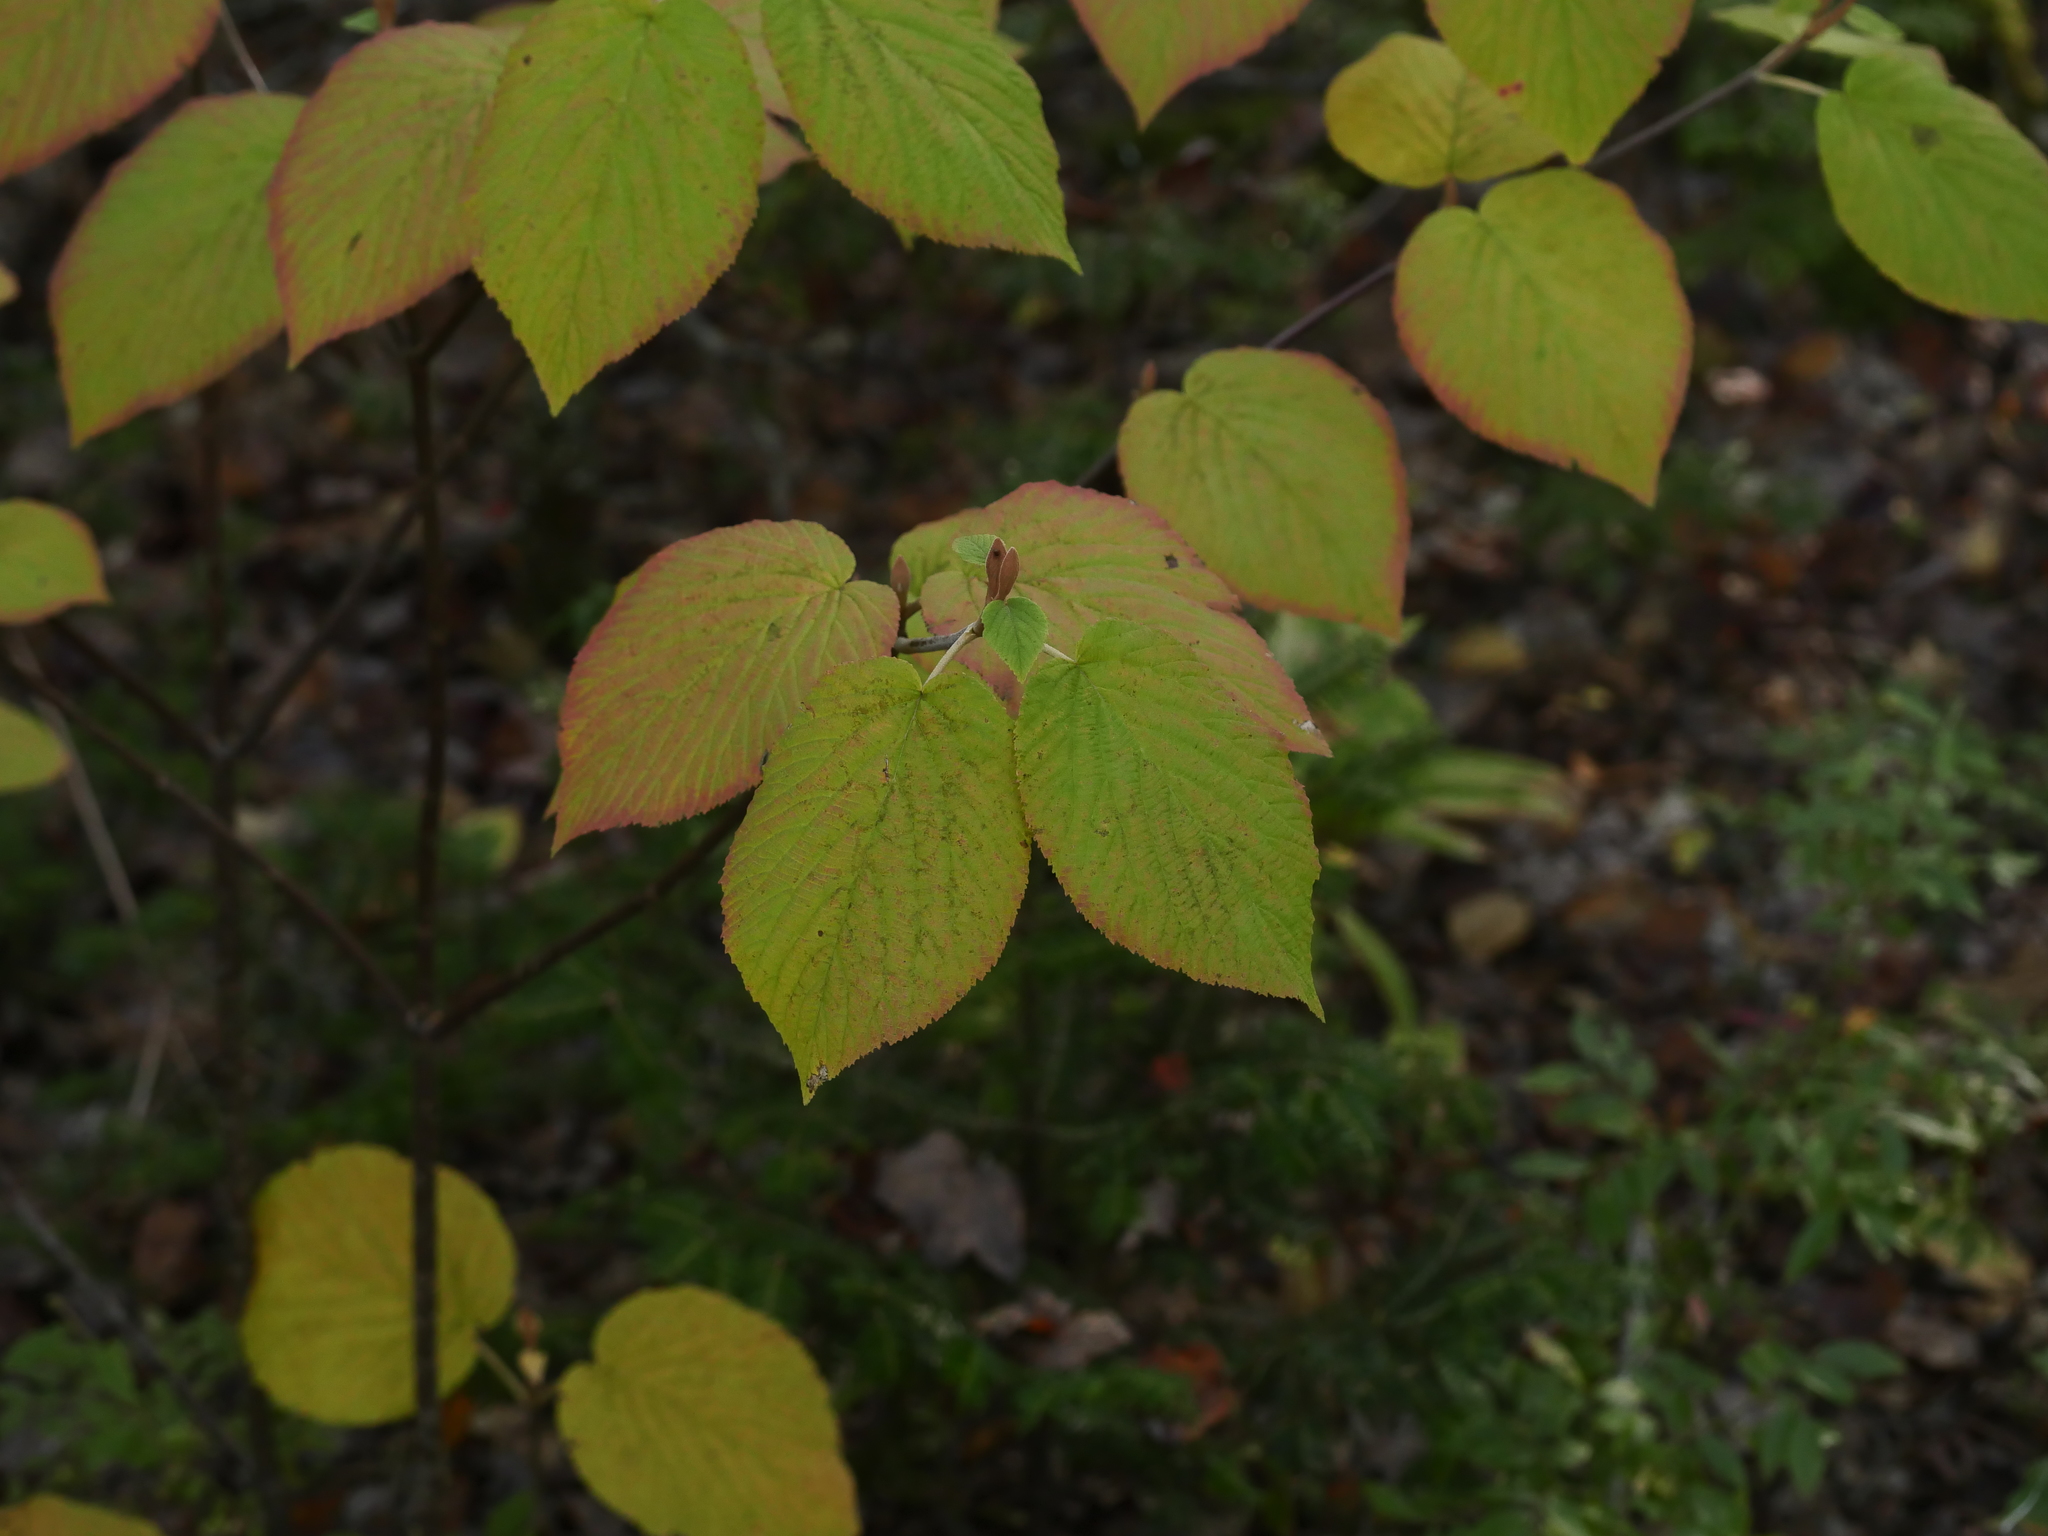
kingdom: Plantae
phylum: Tracheophyta
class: Magnoliopsida
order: Dipsacales
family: Viburnaceae
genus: Viburnum
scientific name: Viburnum lantanoides
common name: Hobblebush
